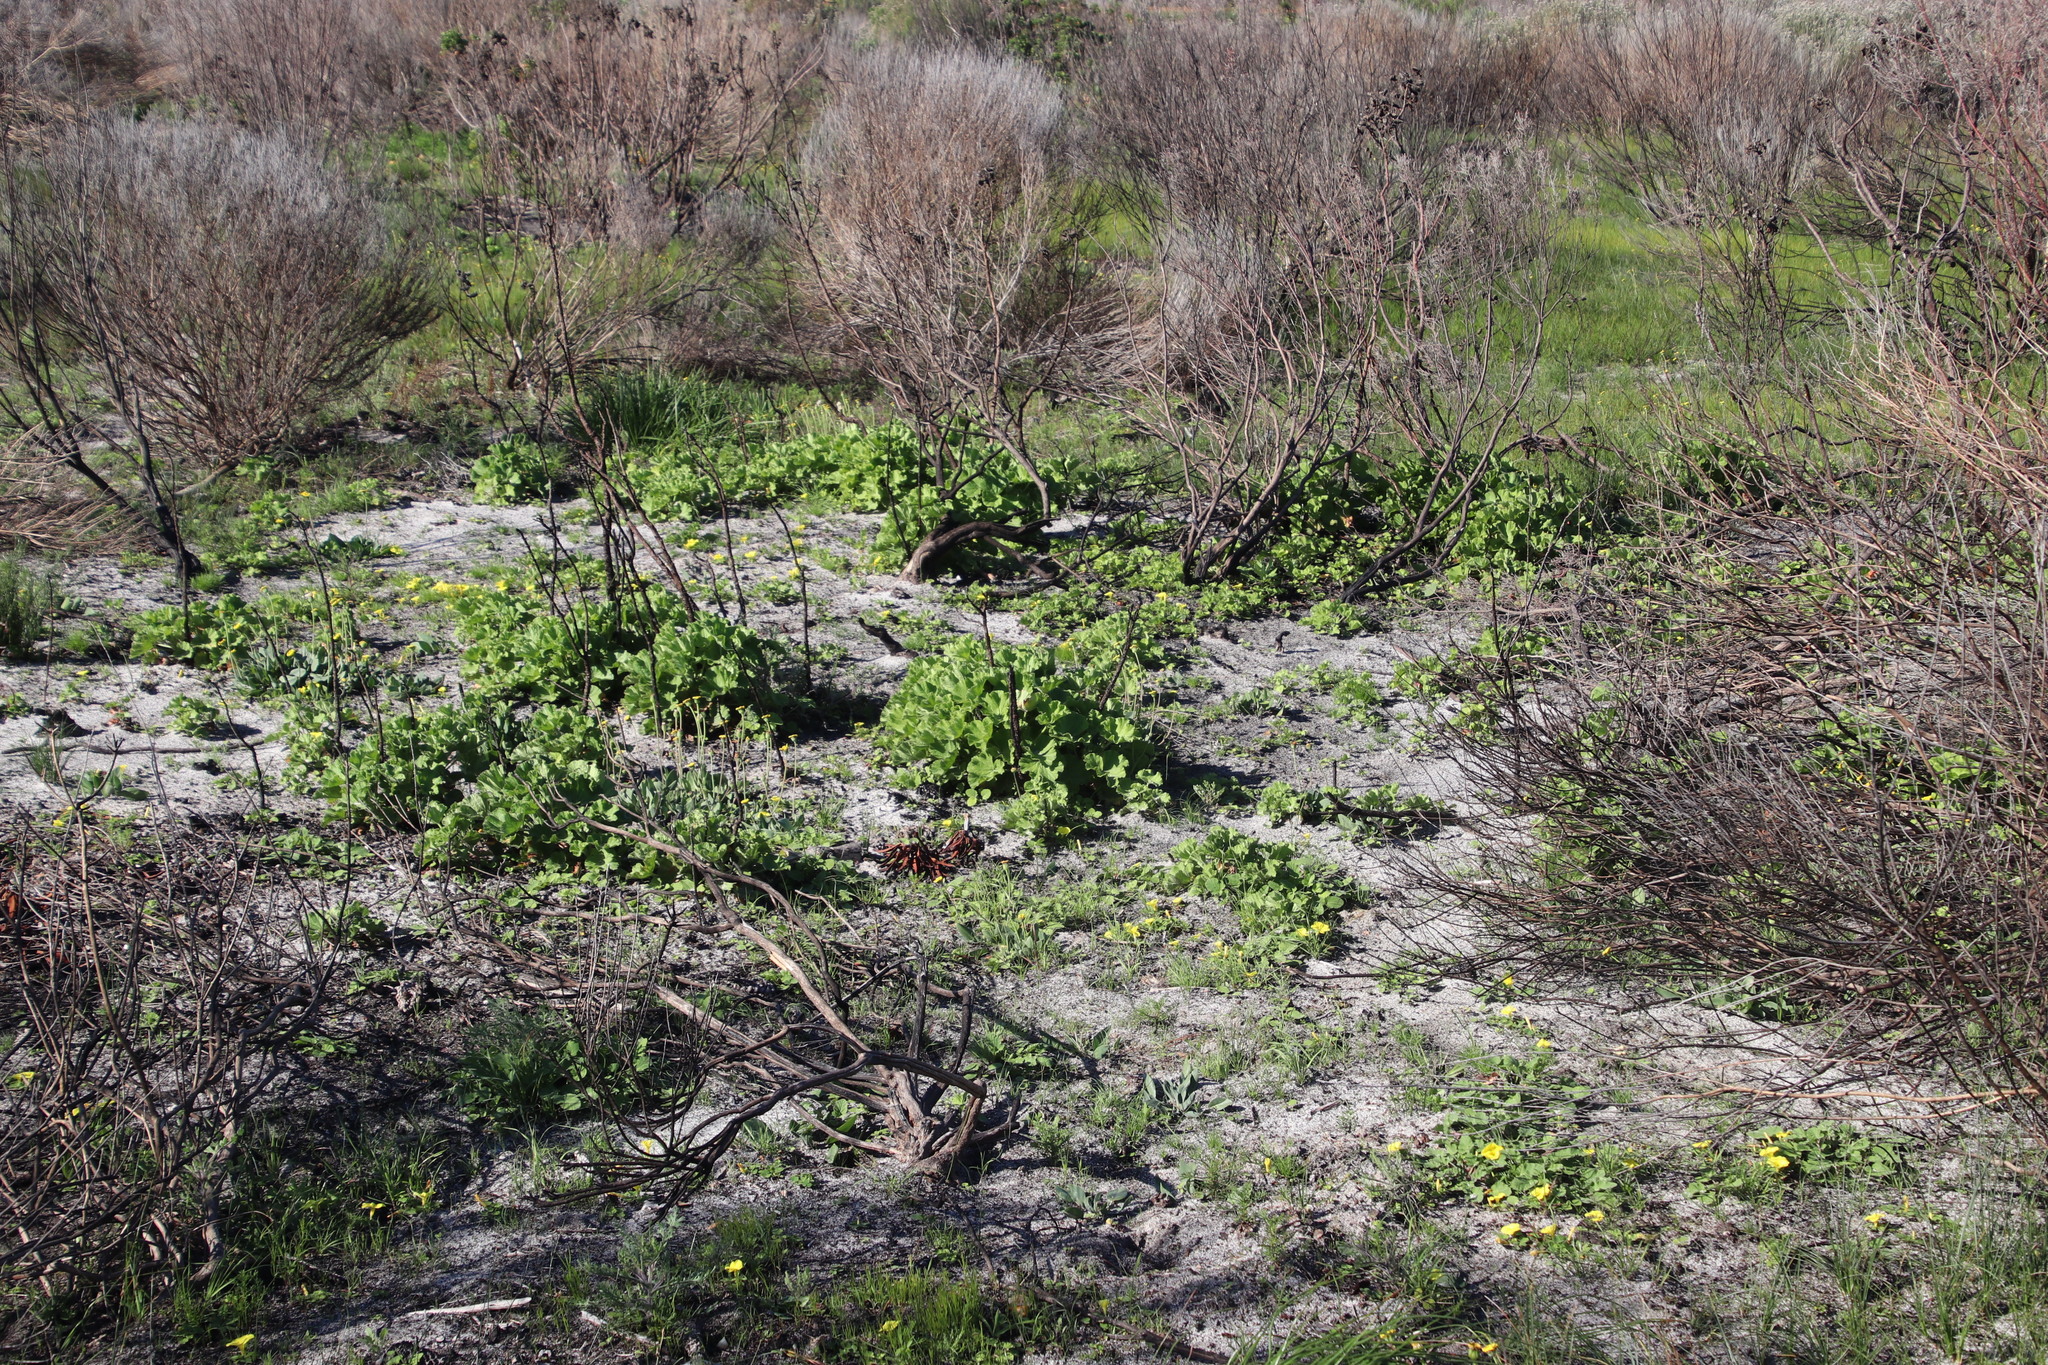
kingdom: Plantae
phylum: Tracheophyta
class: Magnoliopsida
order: Geraniales
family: Geraniaceae
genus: Pelargonium
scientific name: Pelargonium cucullatum
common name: Tree pelargonium
